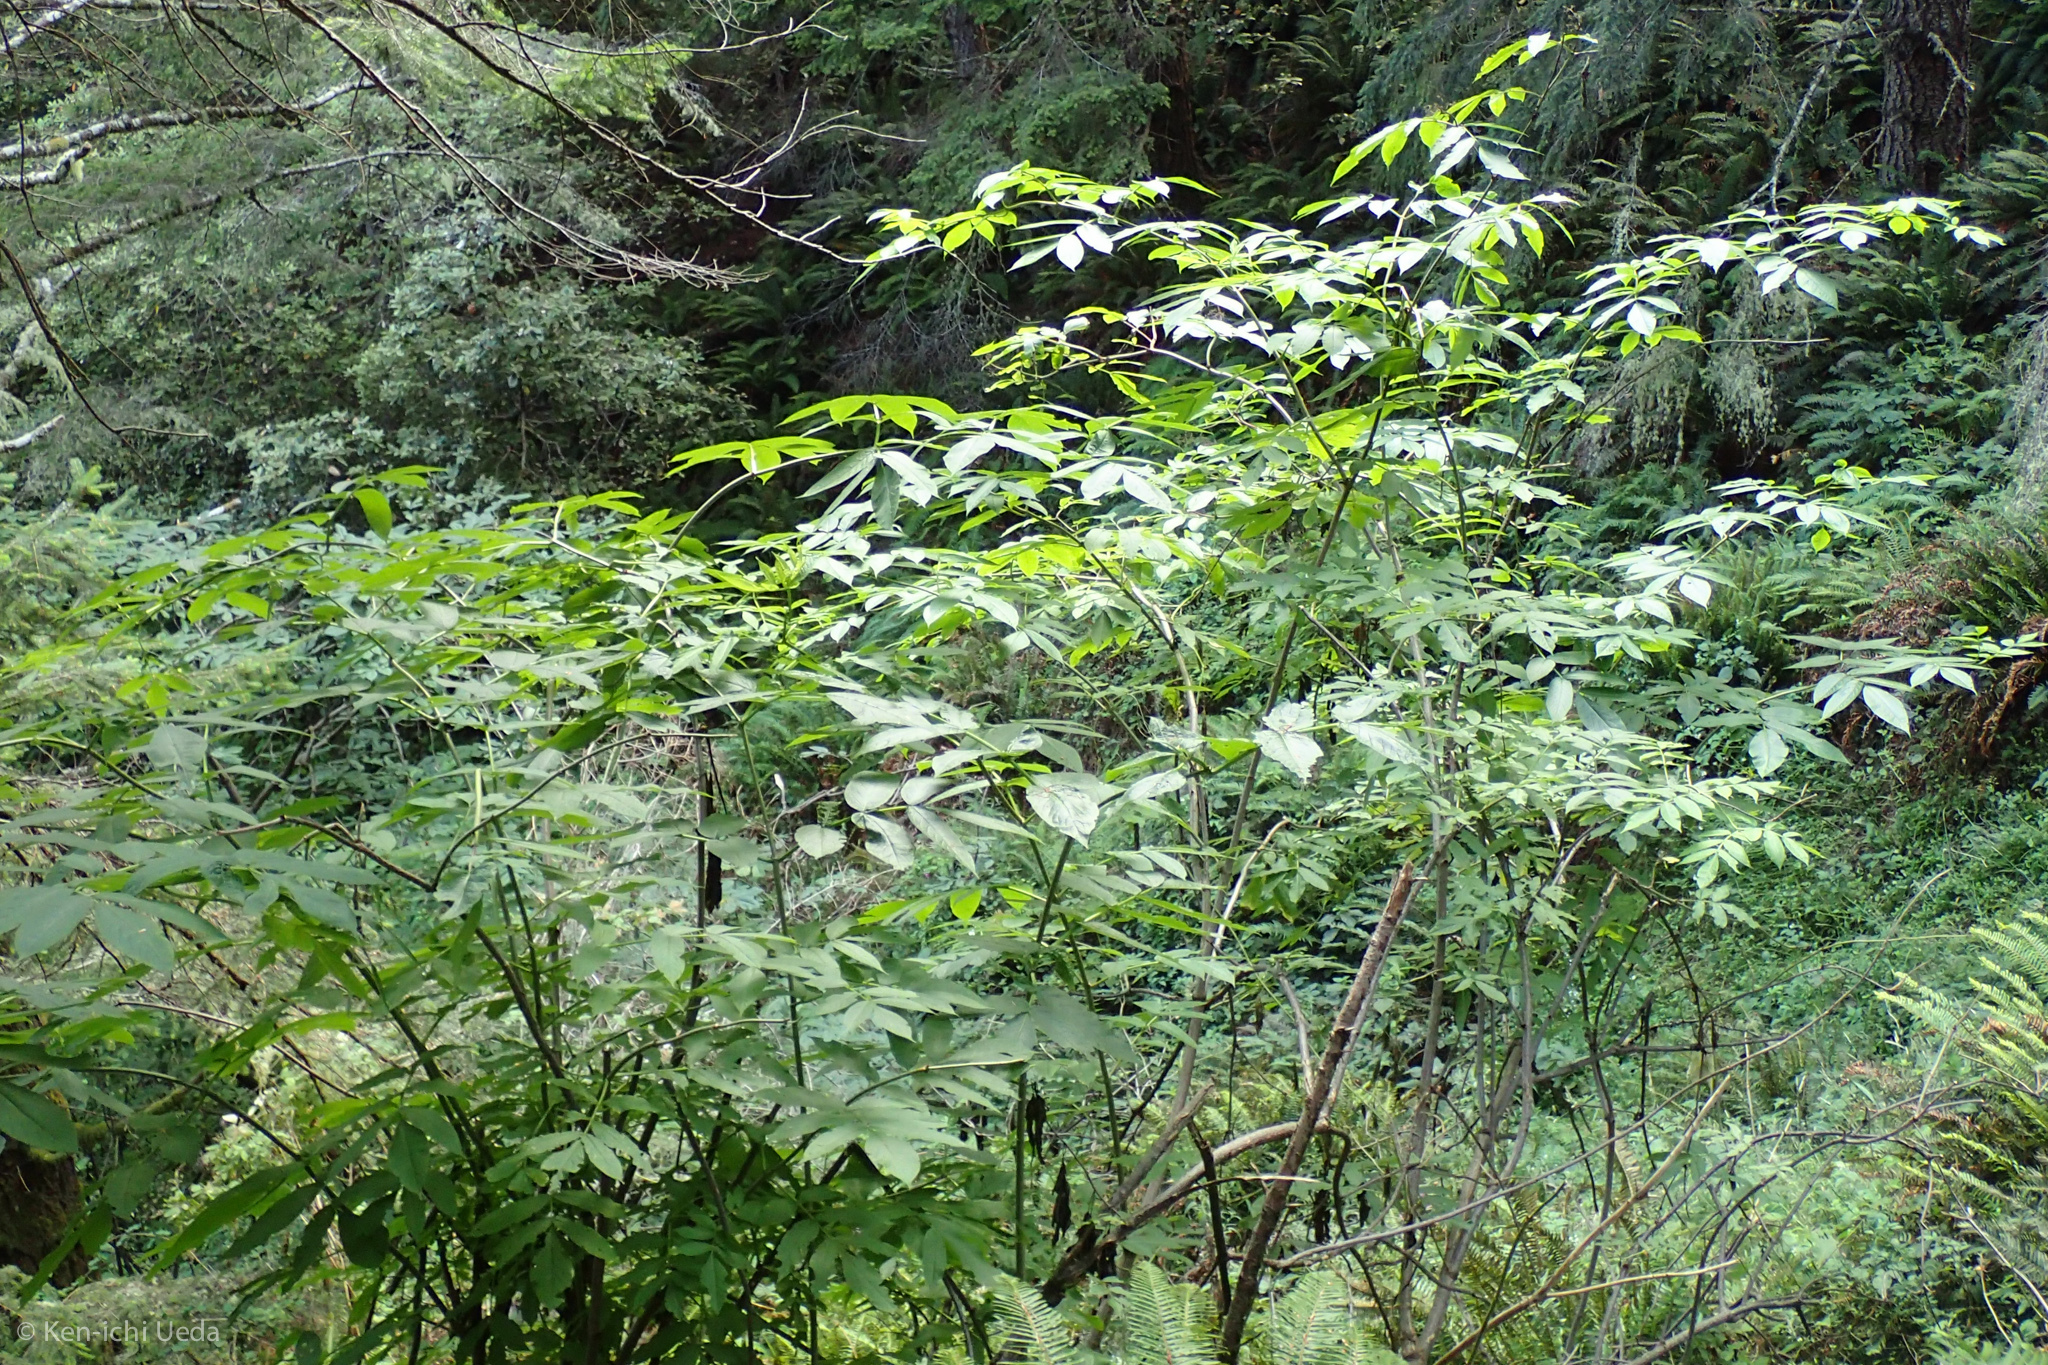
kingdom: Plantae
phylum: Tracheophyta
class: Magnoliopsida
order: Dipsacales
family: Viburnaceae
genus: Sambucus
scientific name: Sambucus racemosa
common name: Red-berried elder
